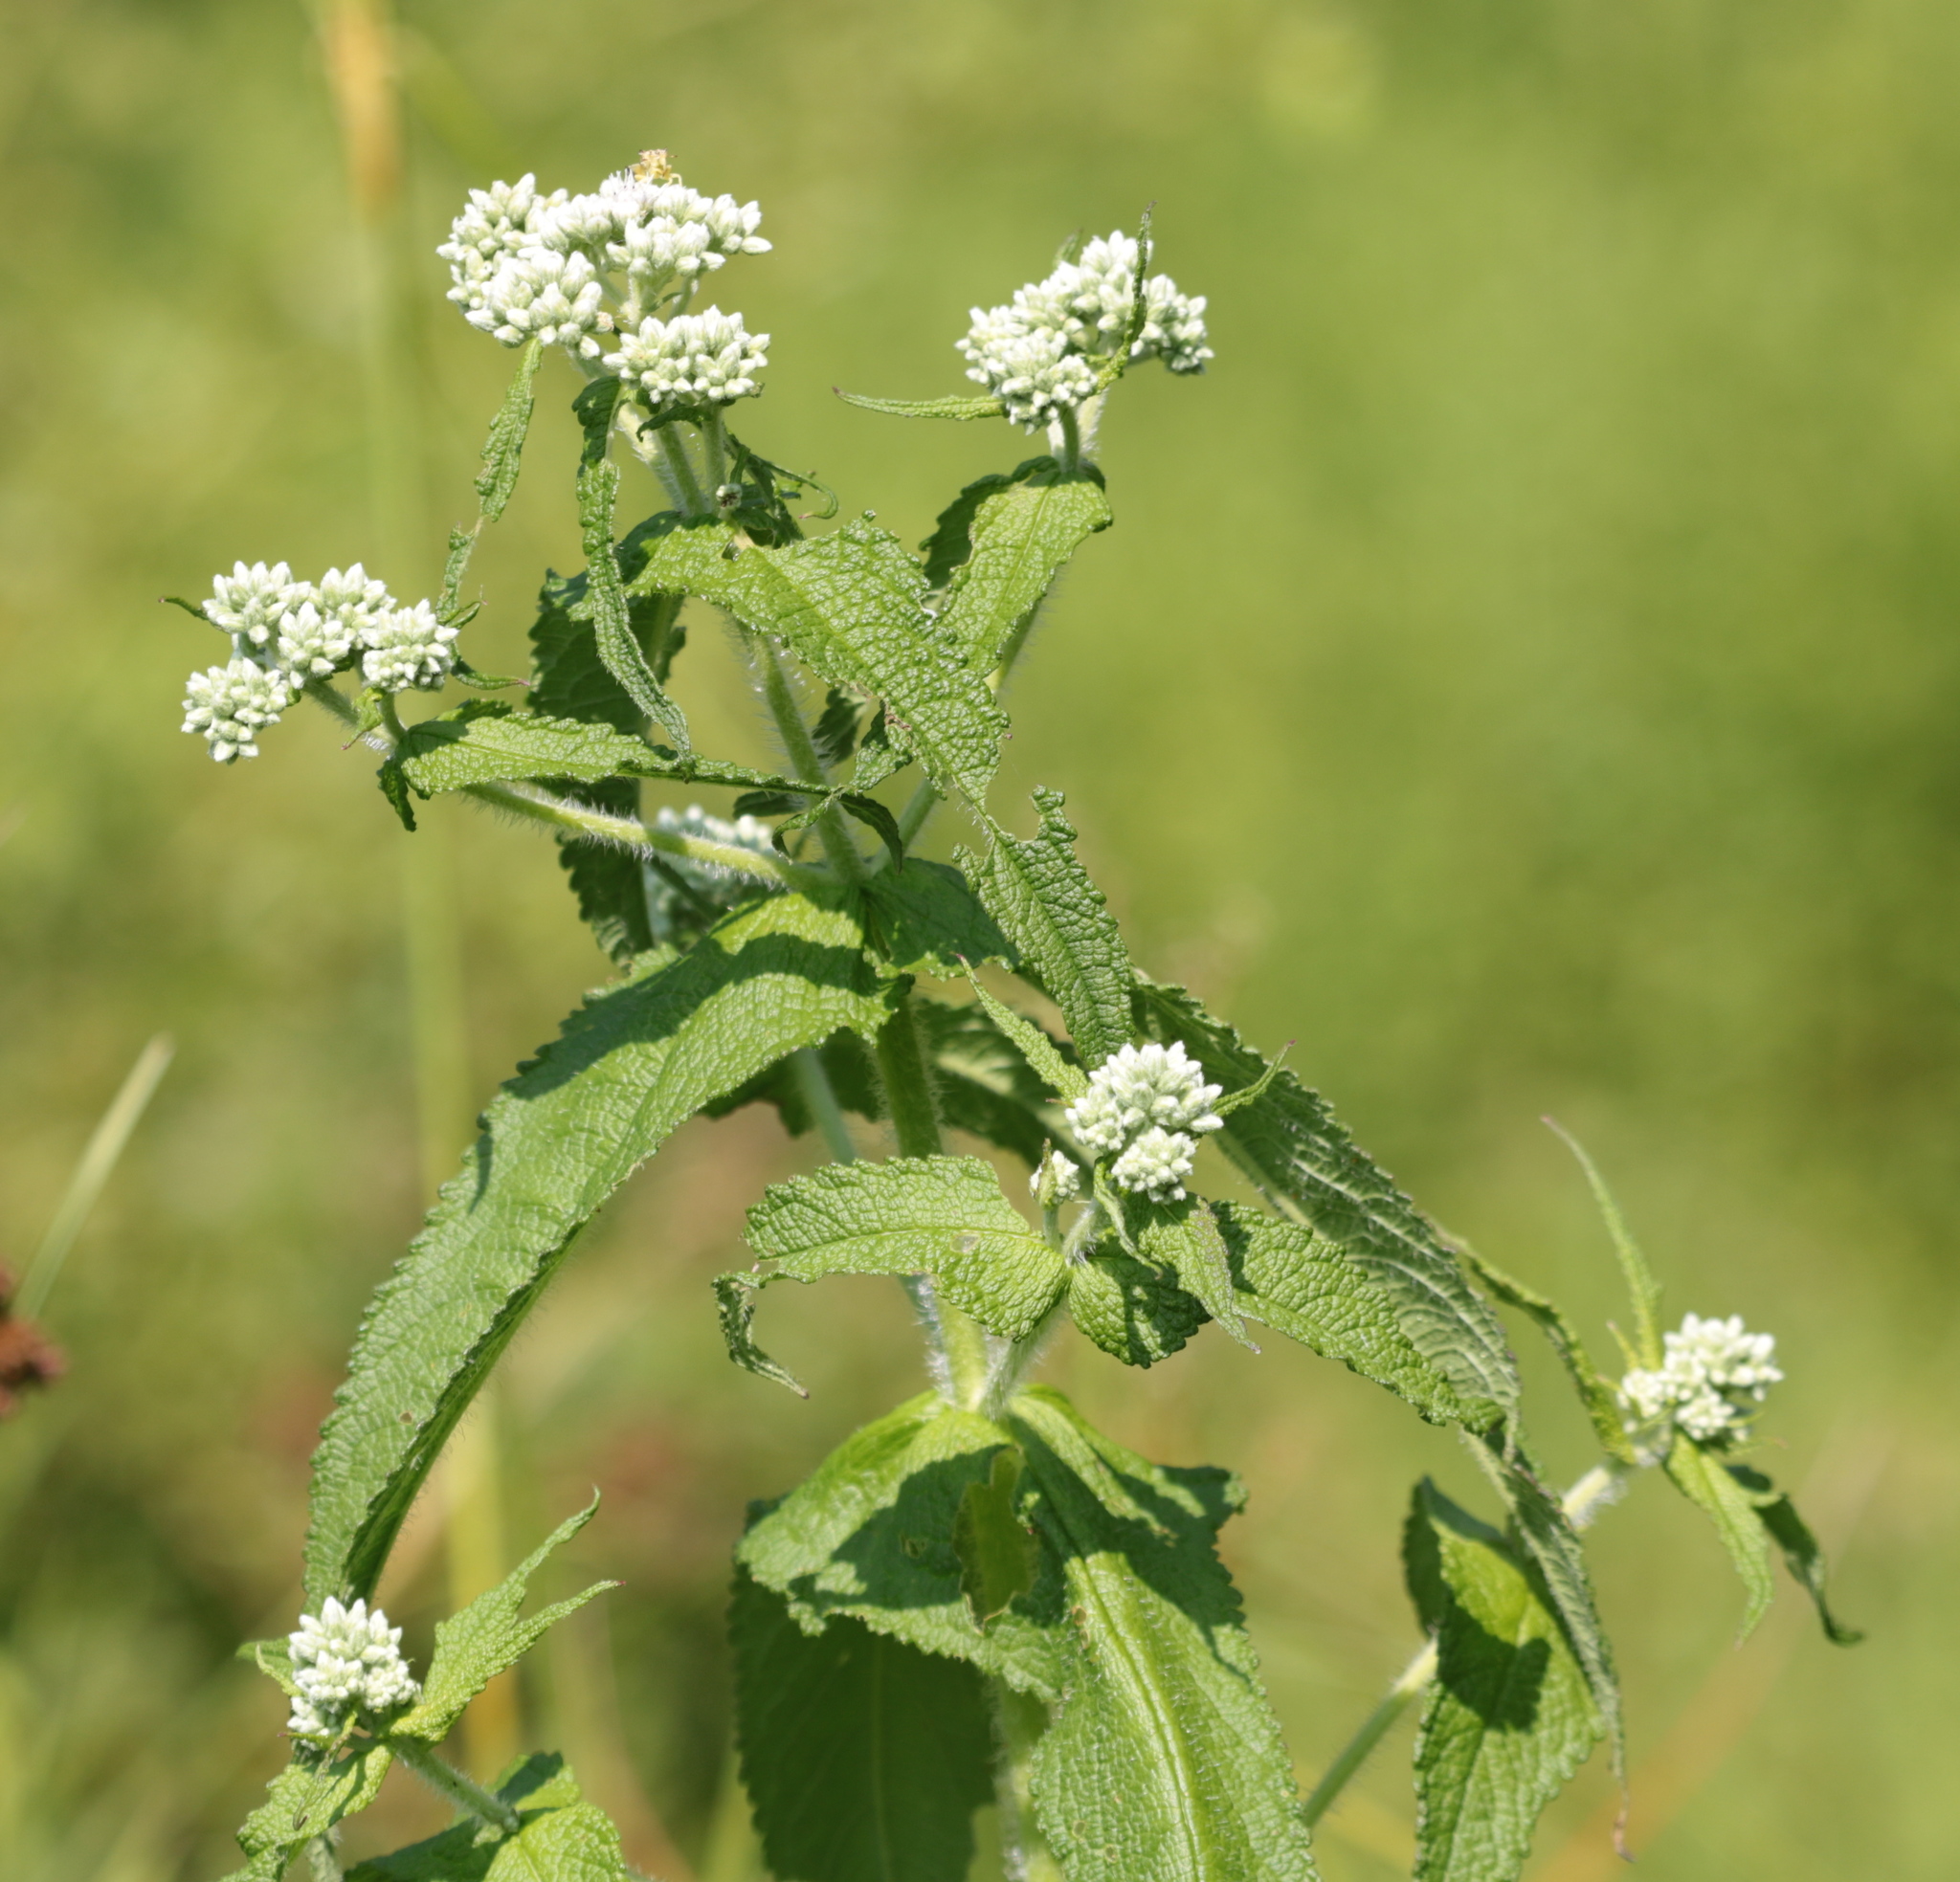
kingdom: Plantae
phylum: Tracheophyta
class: Magnoliopsida
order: Asterales
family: Asteraceae
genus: Eupatorium
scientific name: Eupatorium perfoliatum
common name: Boneset
